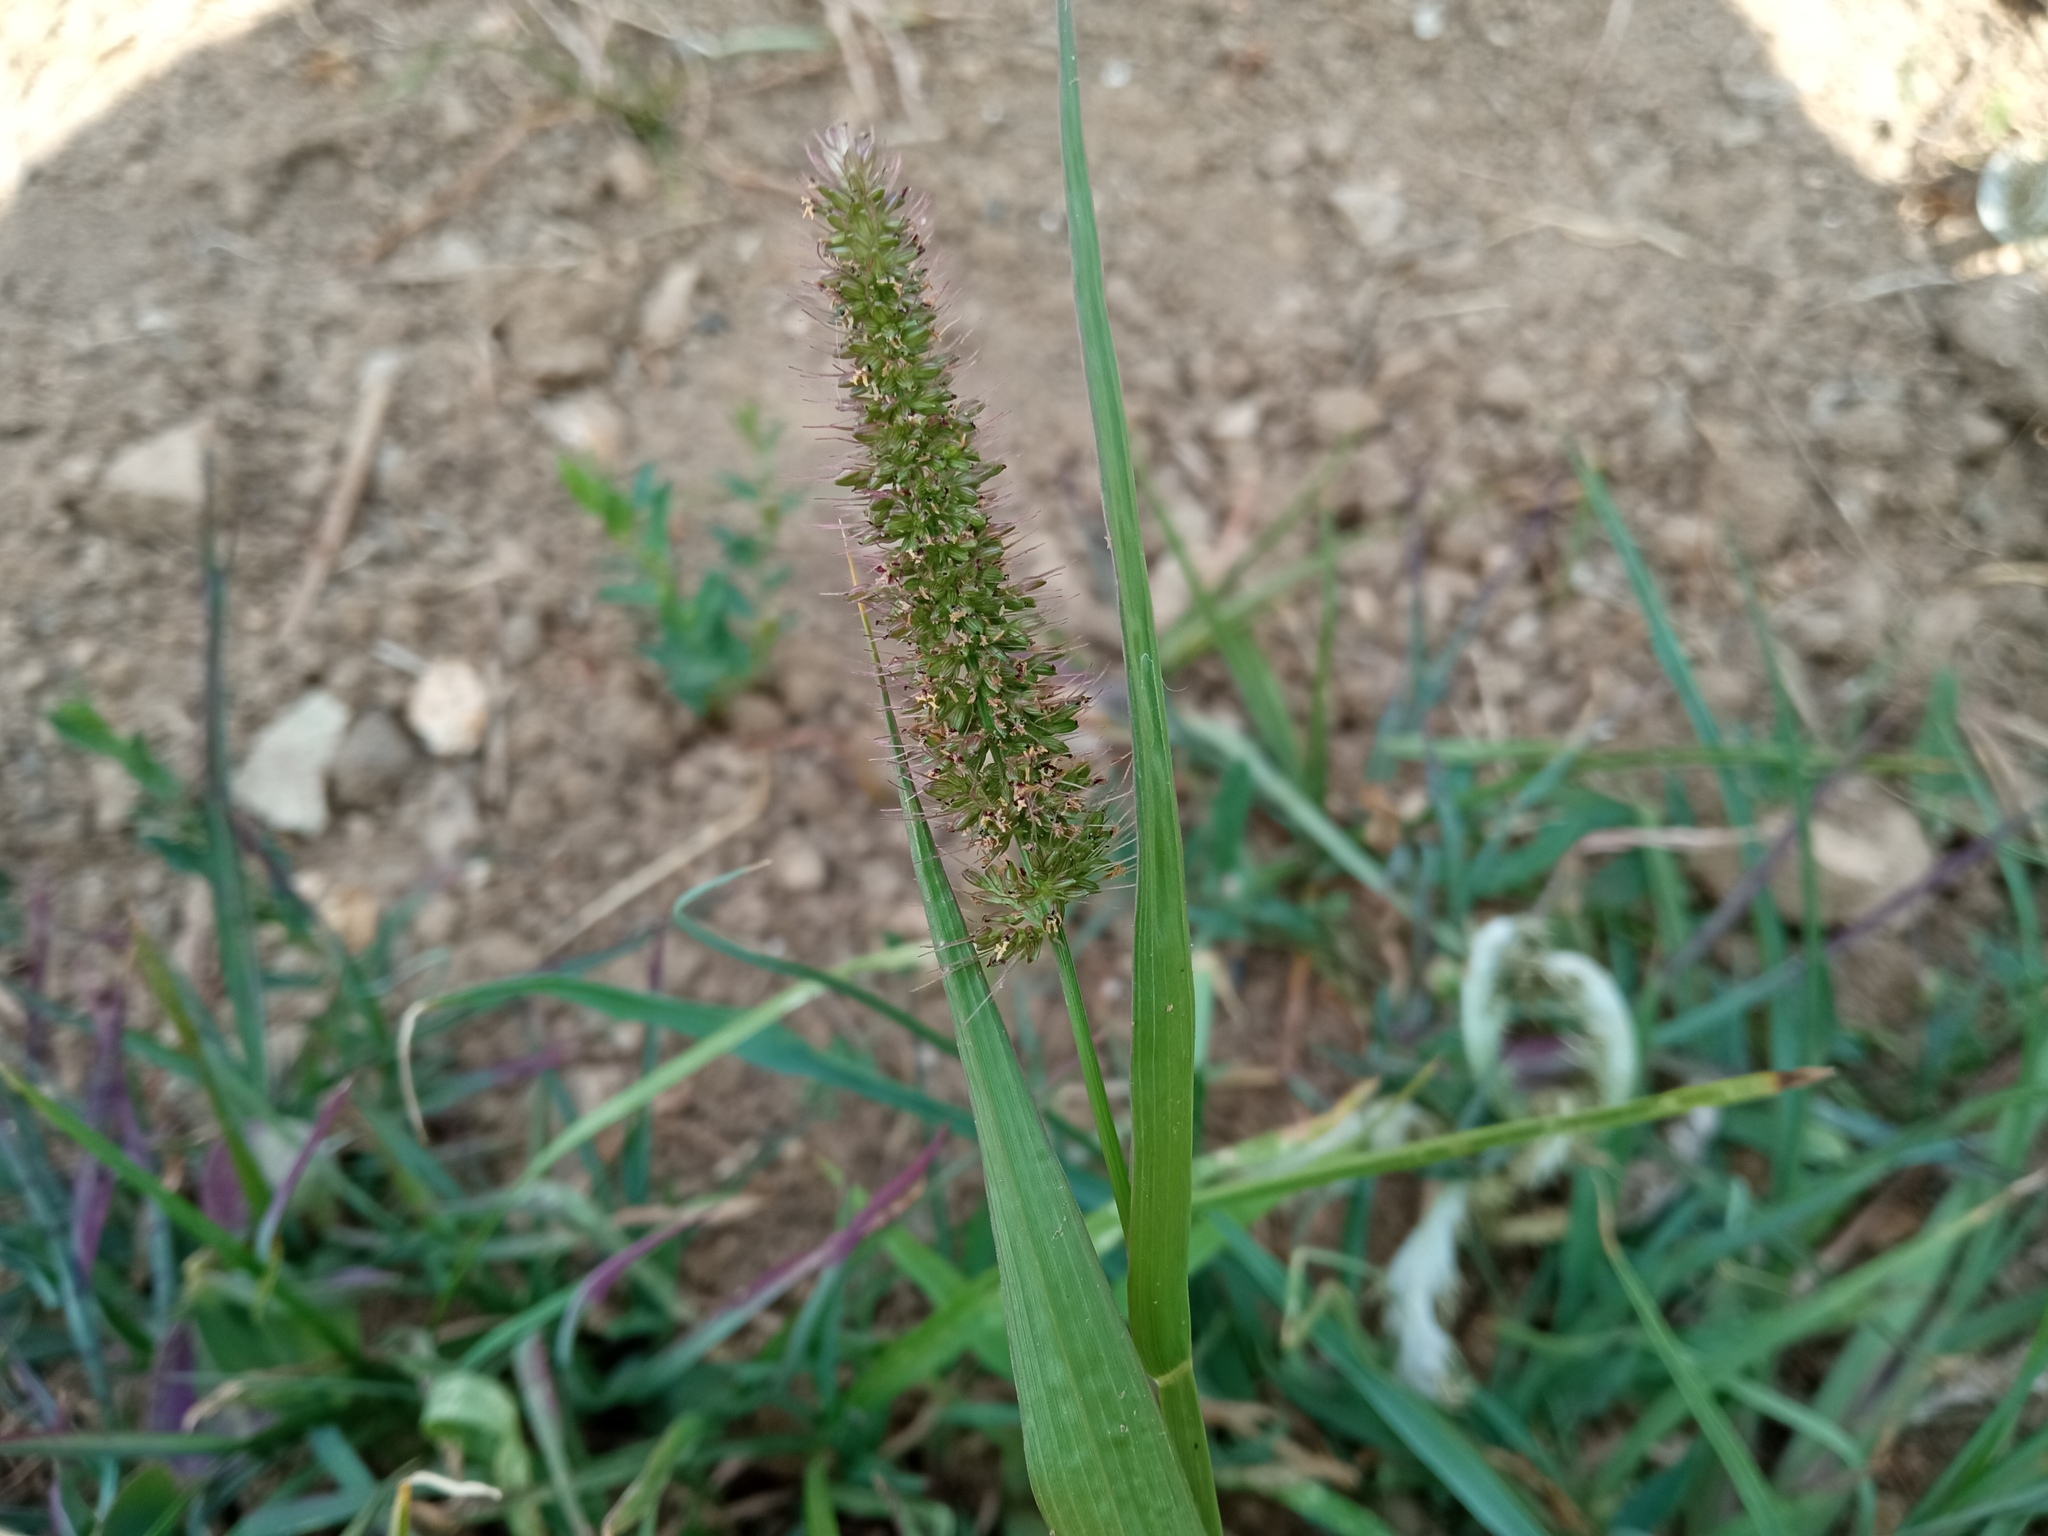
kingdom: Plantae
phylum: Tracheophyta
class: Liliopsida
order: Poales
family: Poaceae
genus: Setaria
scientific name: Setaria verticillata
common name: Hooked bristlegrass
